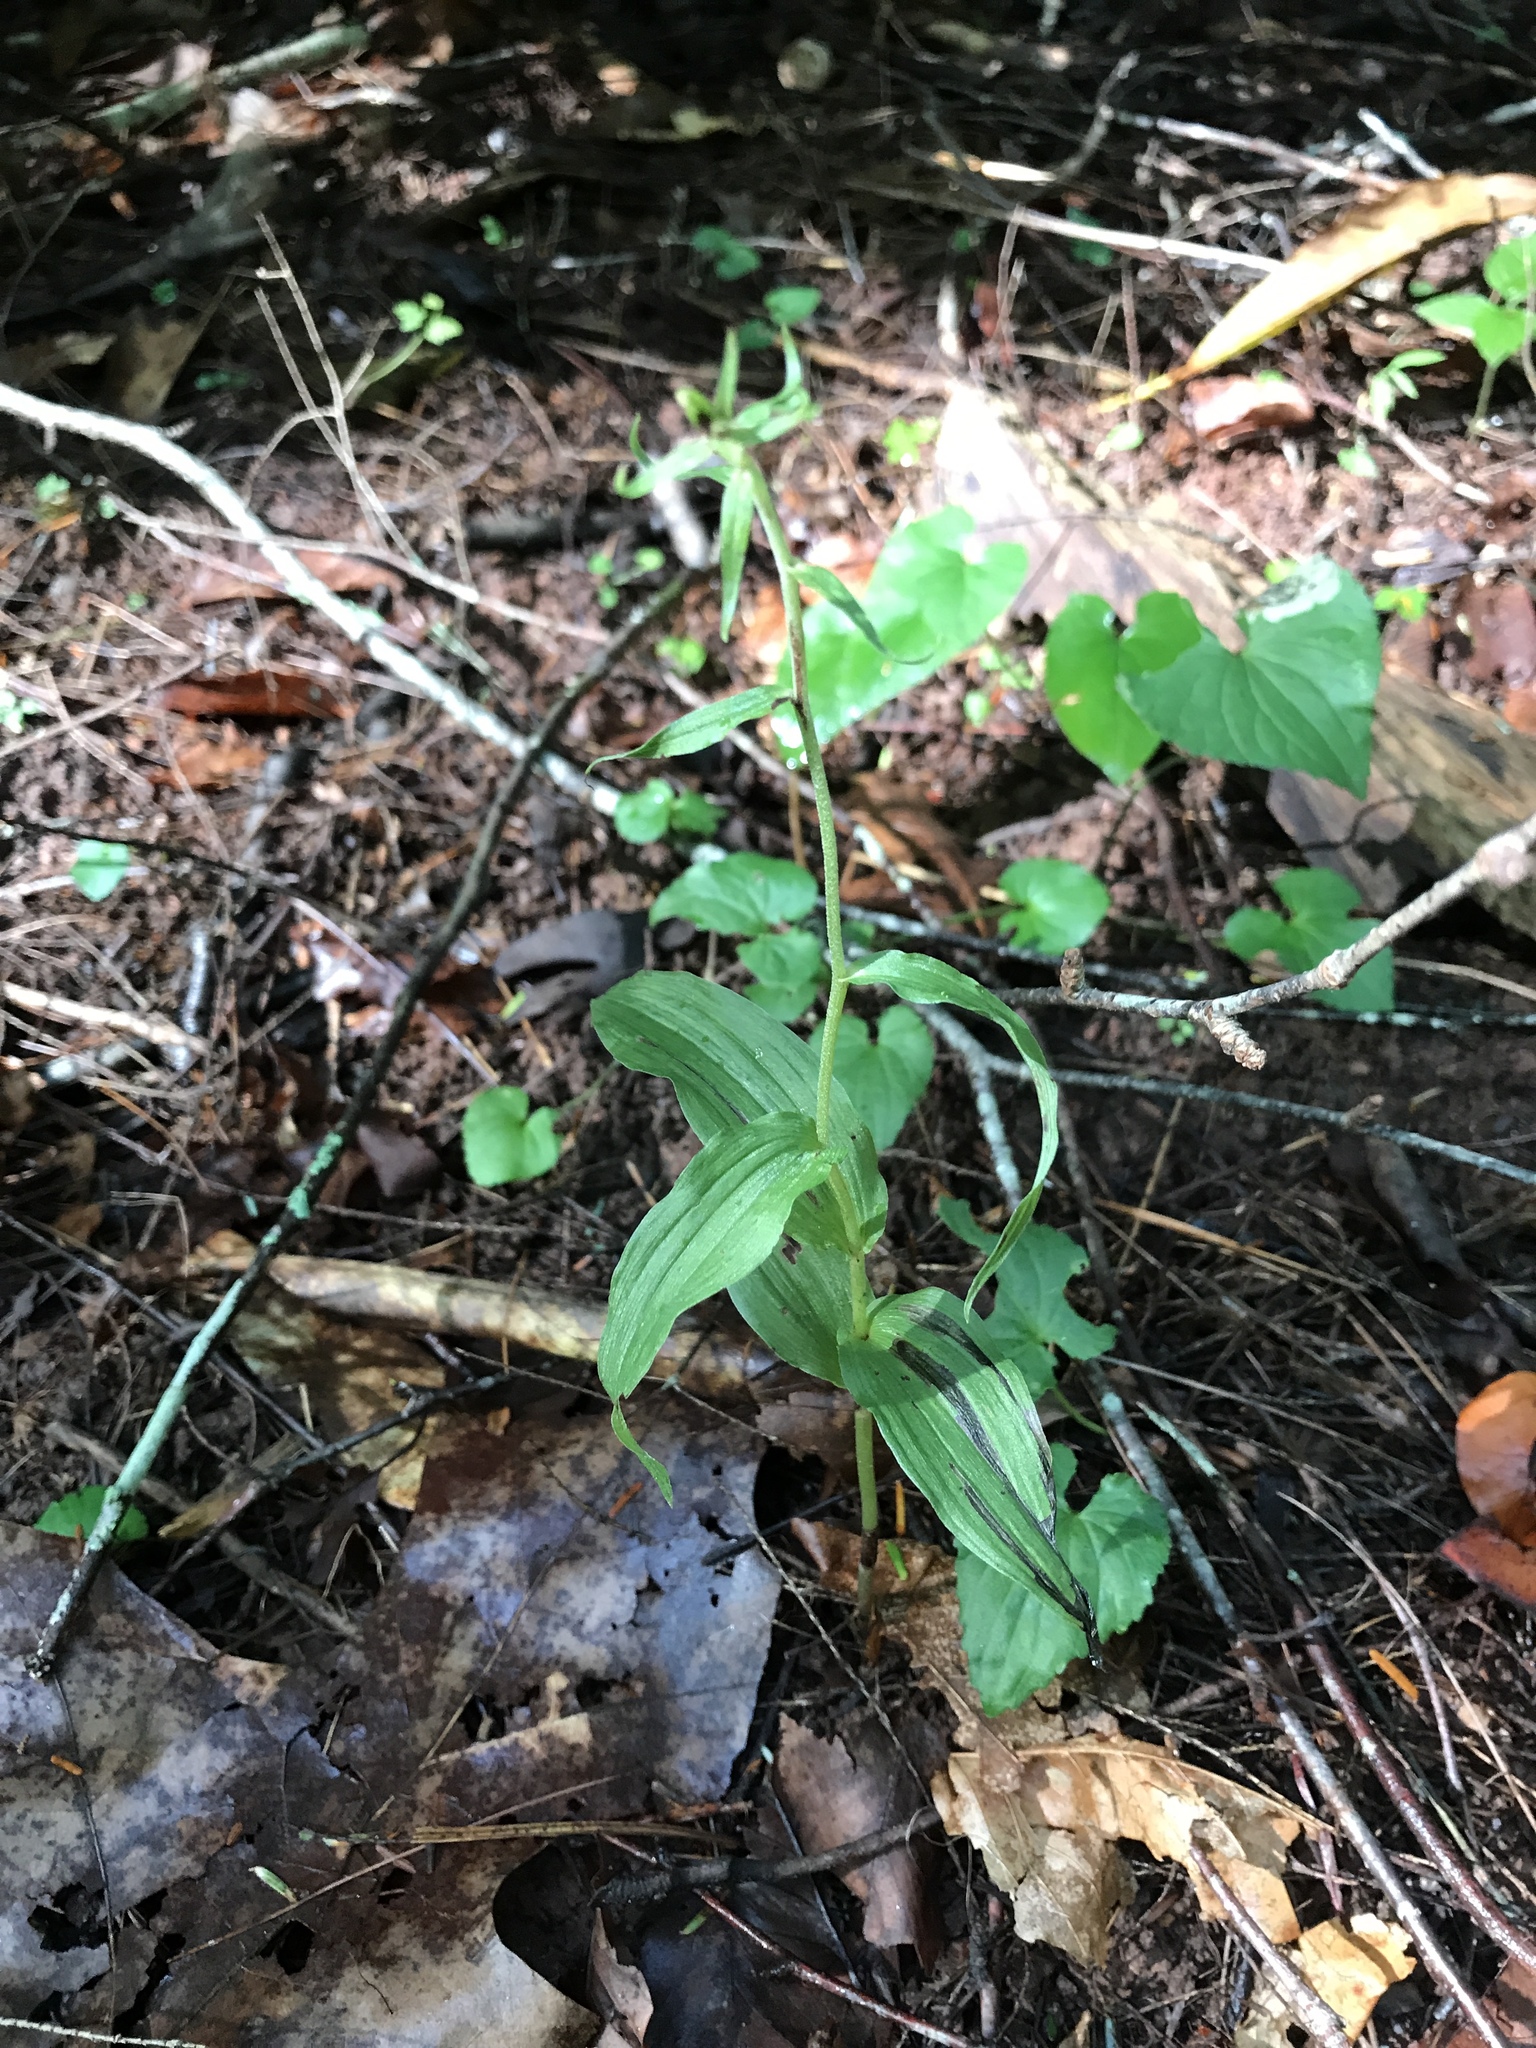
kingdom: Plantae
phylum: Tracheophyta
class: Liliopsida
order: Asparagales
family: Orchidaceae
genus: Epipactis
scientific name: Epipactis helleborine
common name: Broad-leaved helleborine
